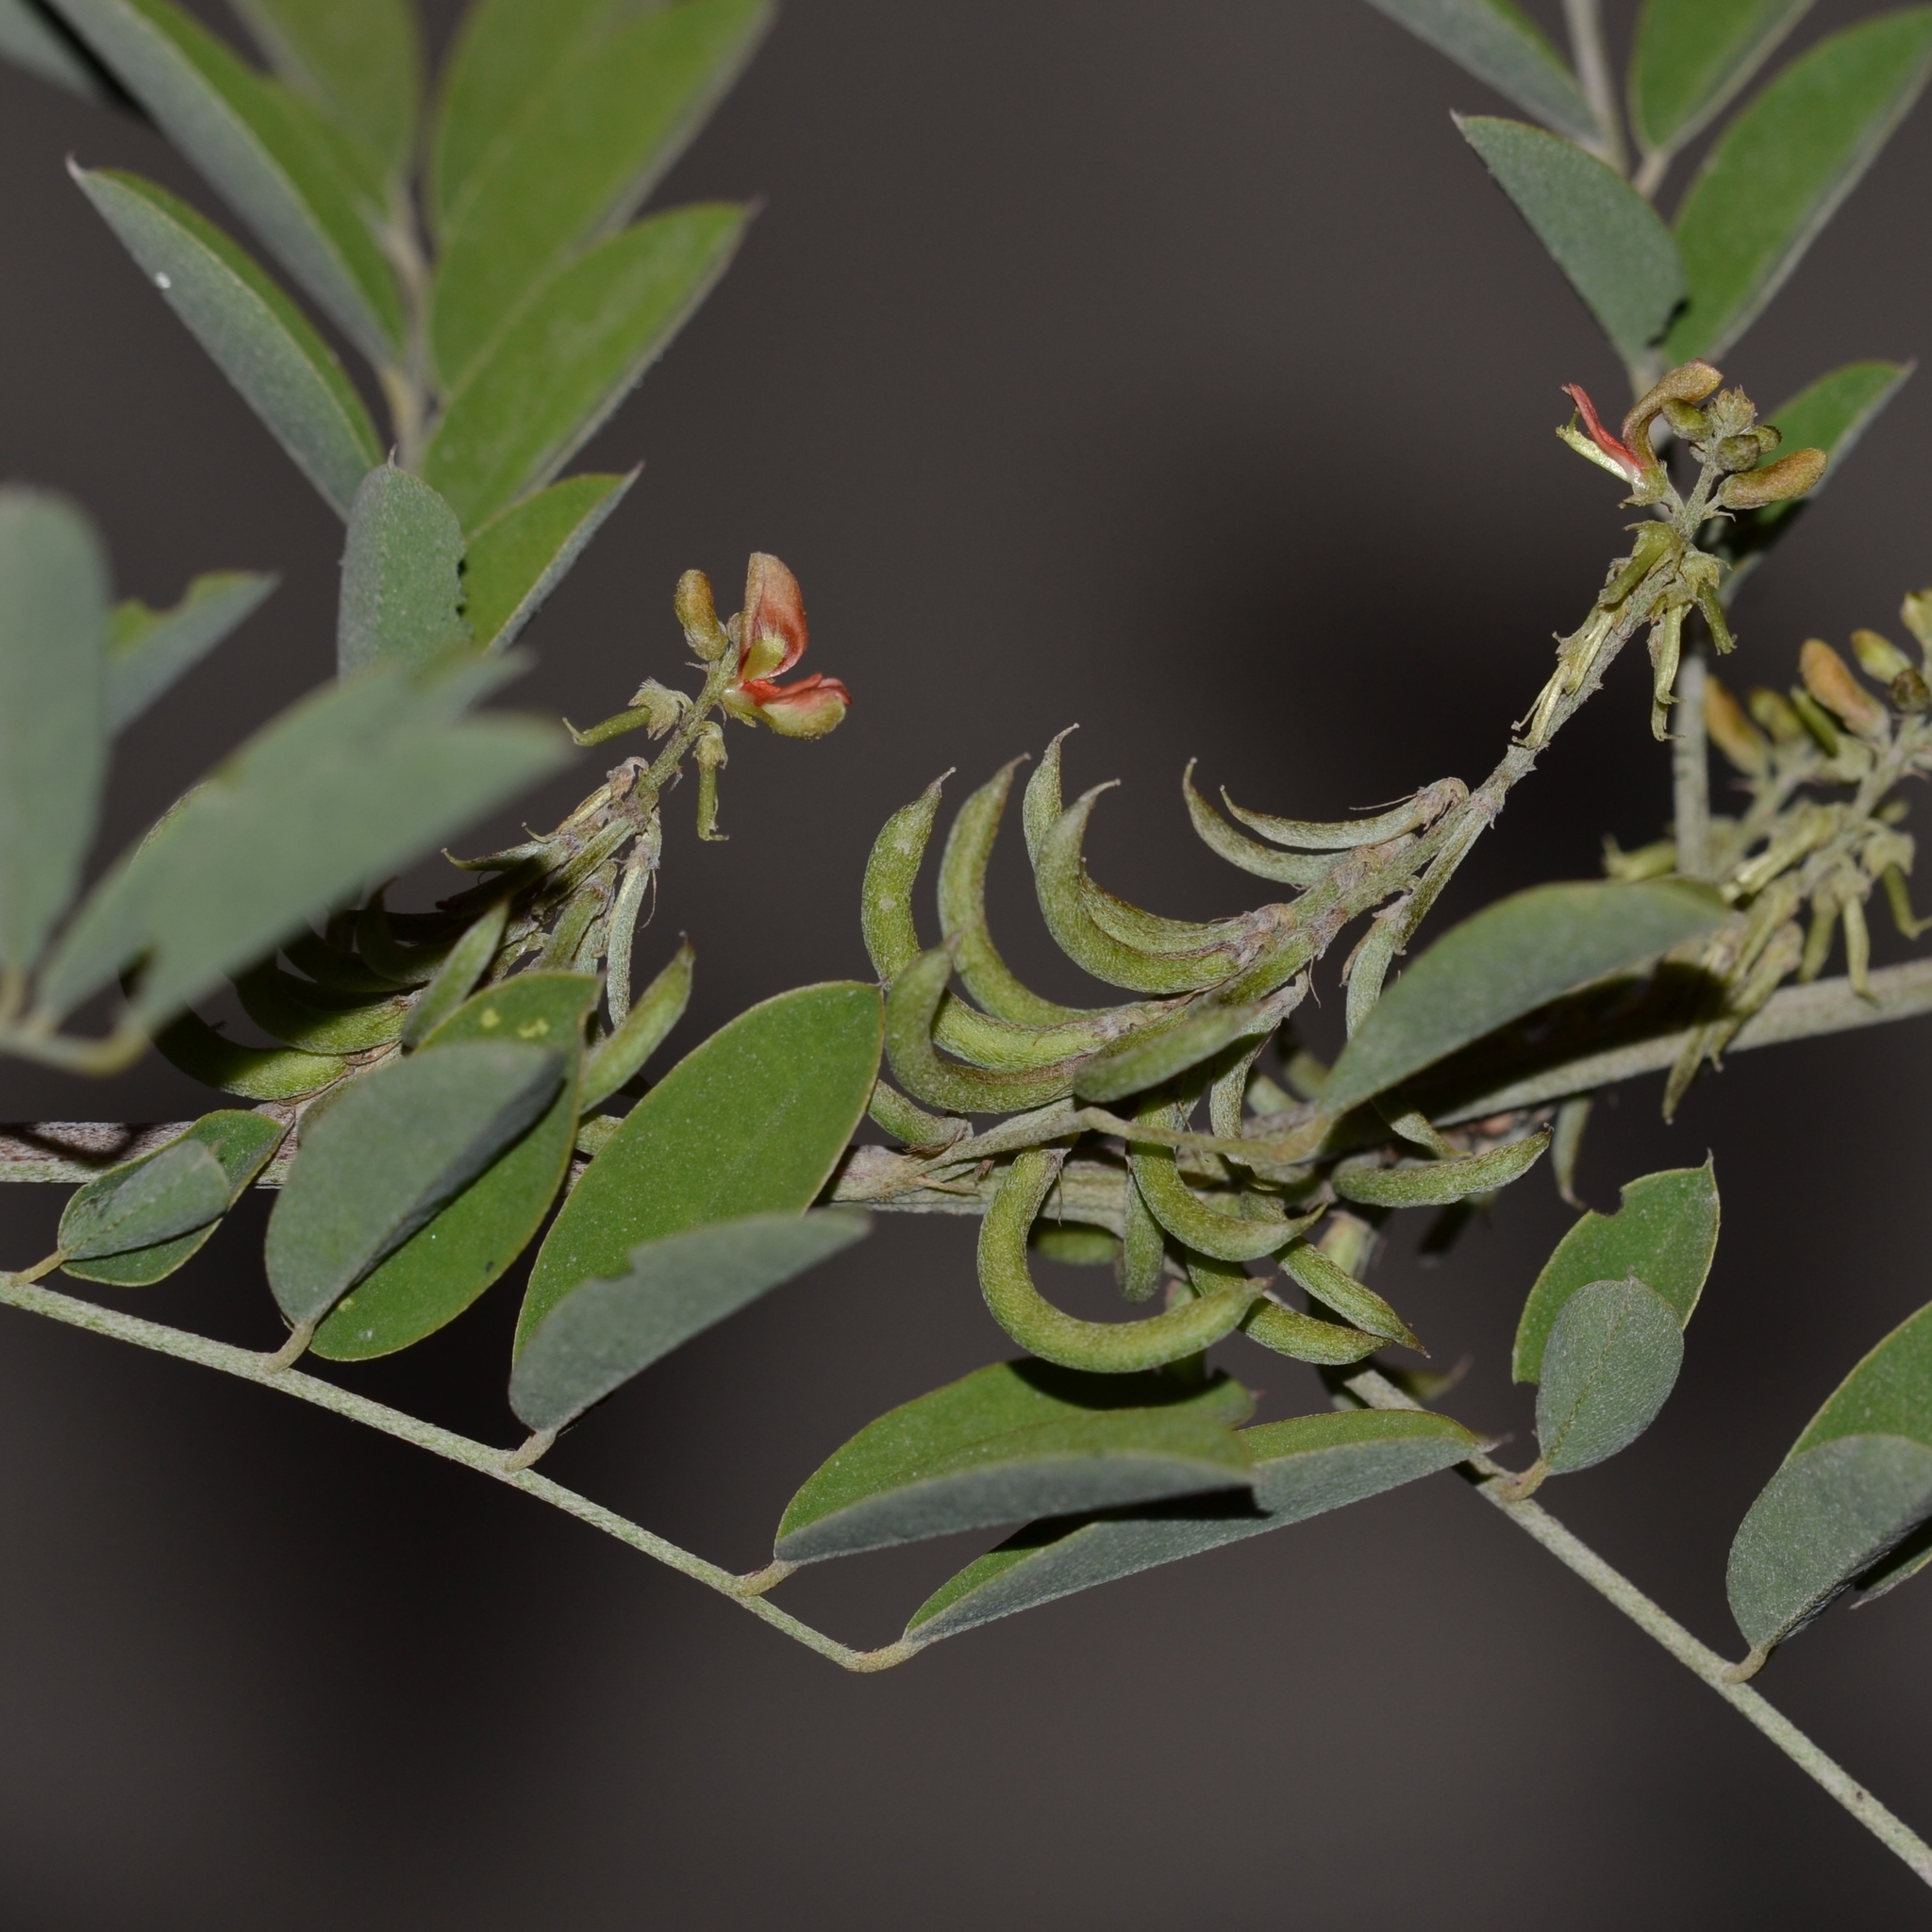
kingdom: Plantae
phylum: Tracheophyta
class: Magnoliopsida
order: Fabales
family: Fabaceae
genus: Indigofera
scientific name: Indigofera suffruticosa
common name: Anil de pasto
